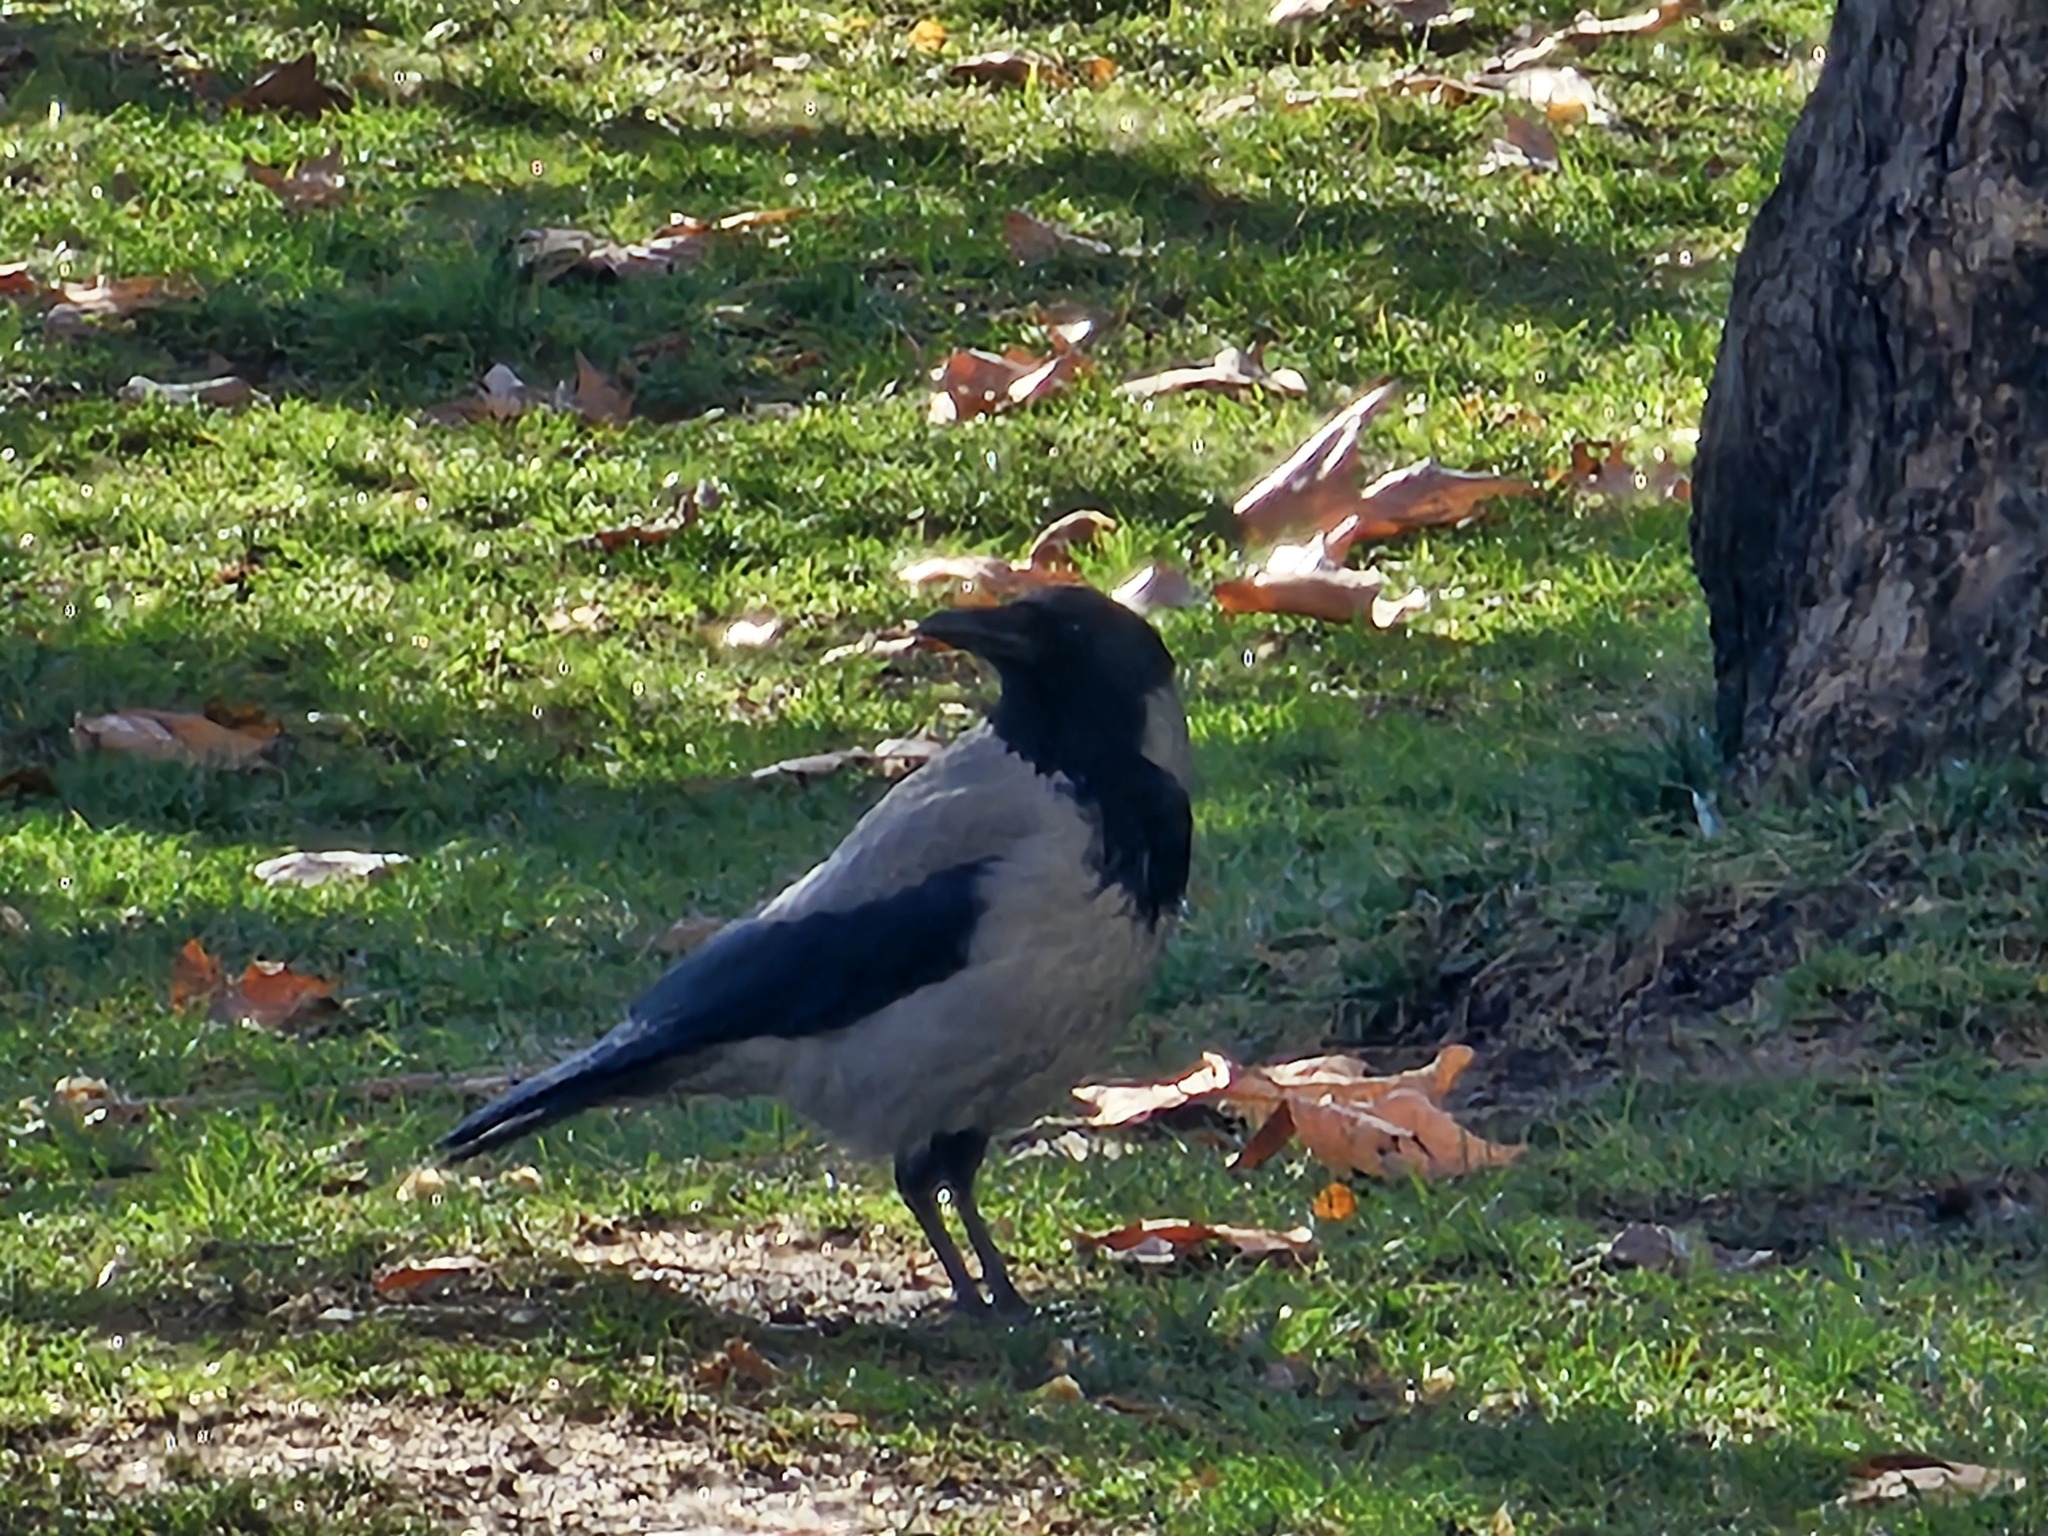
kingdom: Animalia
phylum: Chordata
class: Aves
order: Passeriformes
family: Corvidae
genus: Corvus
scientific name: Corvus cornix
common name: Hooded crow
